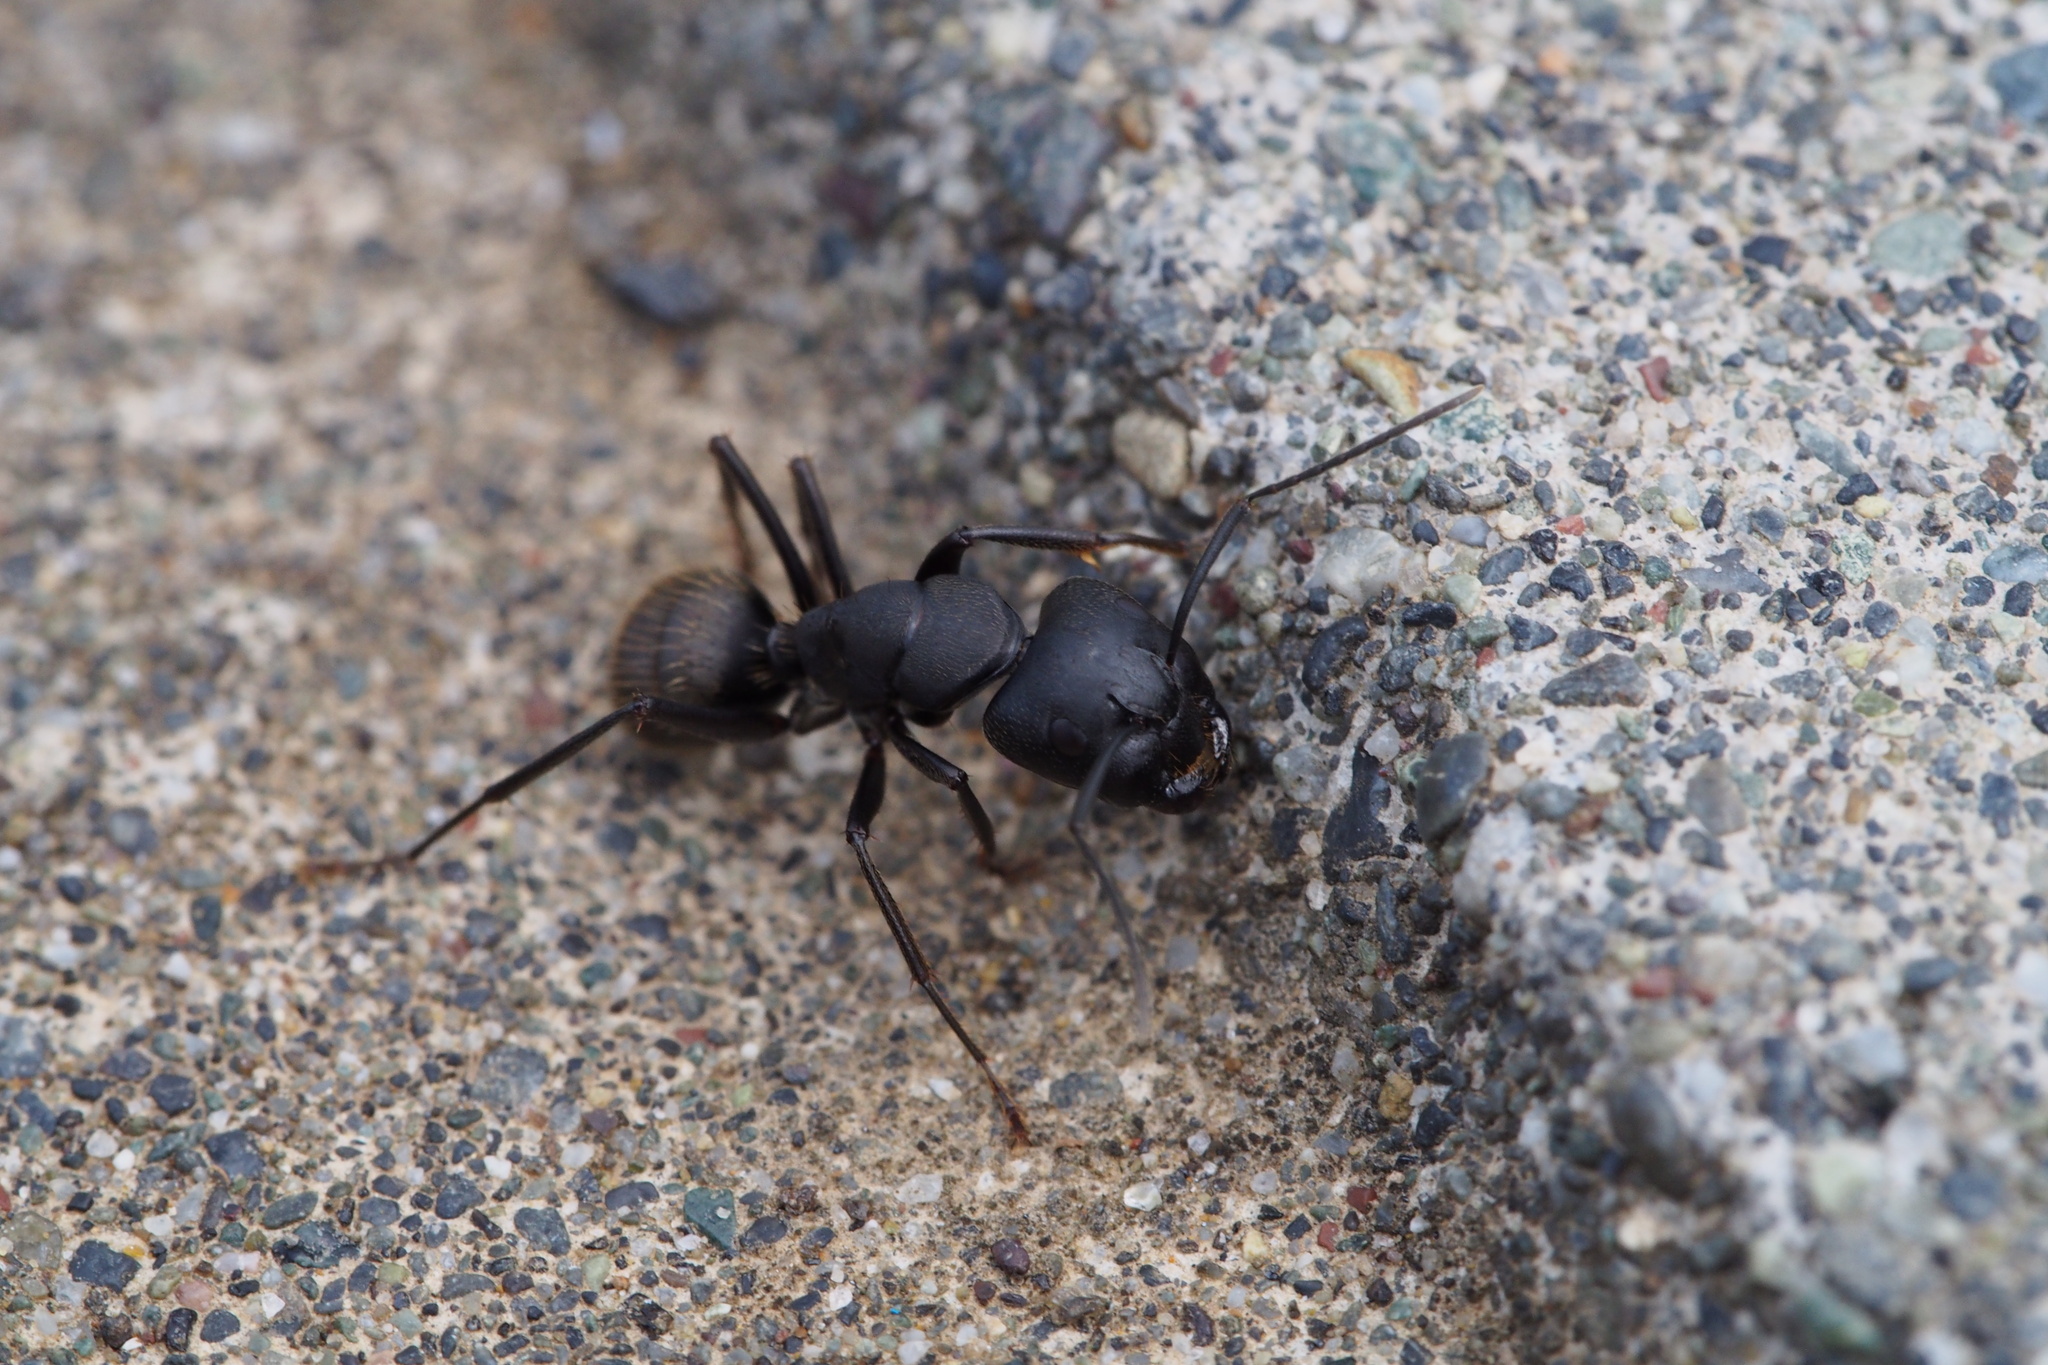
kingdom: Animalia
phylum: Arthropoda
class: Insecta
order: Hymenoptera
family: Formicidae
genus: Camponotus
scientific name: Camponotus japonicus
